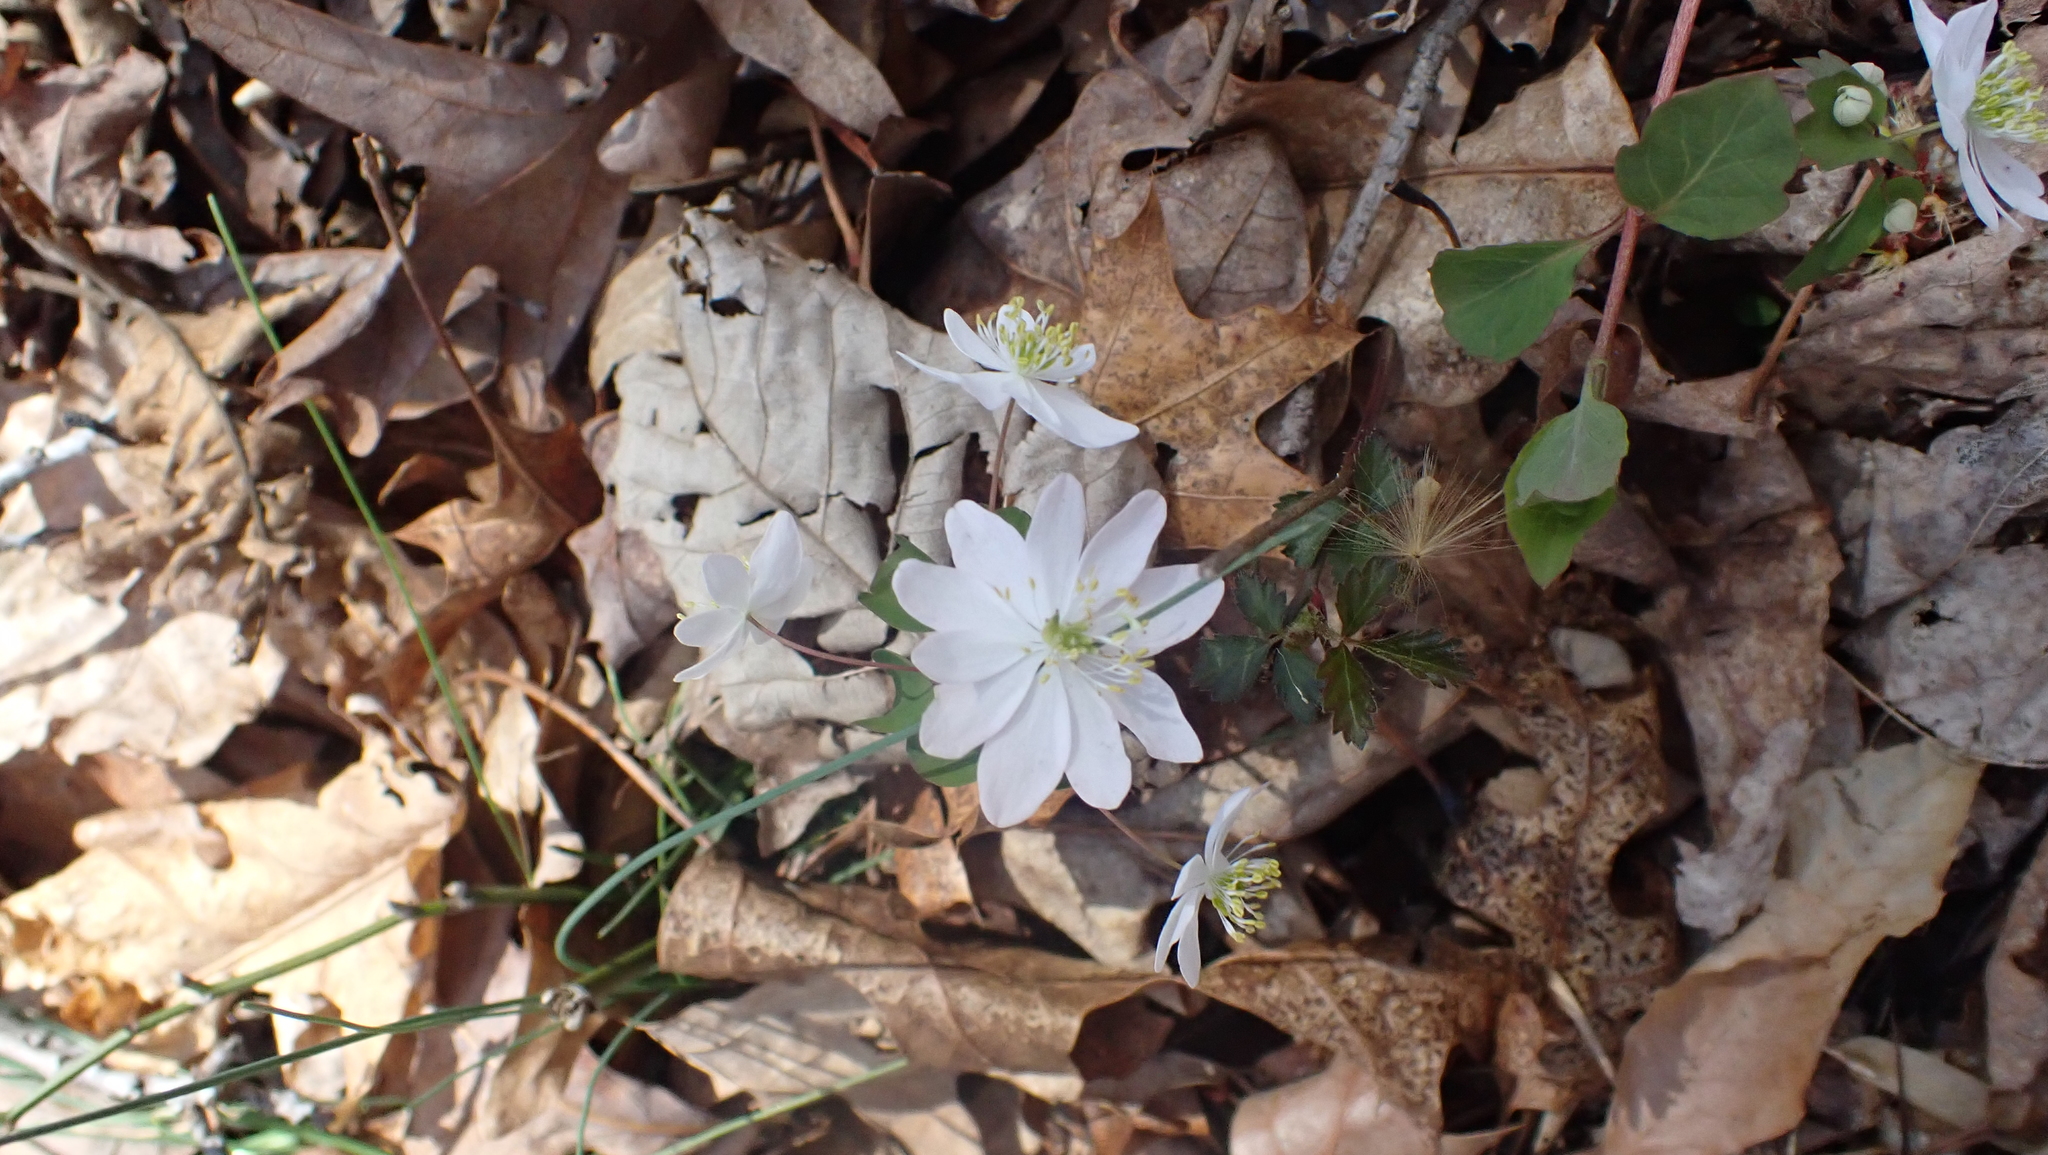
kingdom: Plantae
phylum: Tracheophyta
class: Magnoliopsida
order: Ranunculales
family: Ranunculaceae
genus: Thalictrum
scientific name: Thalictrum thalictroides
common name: Rue-anemone
